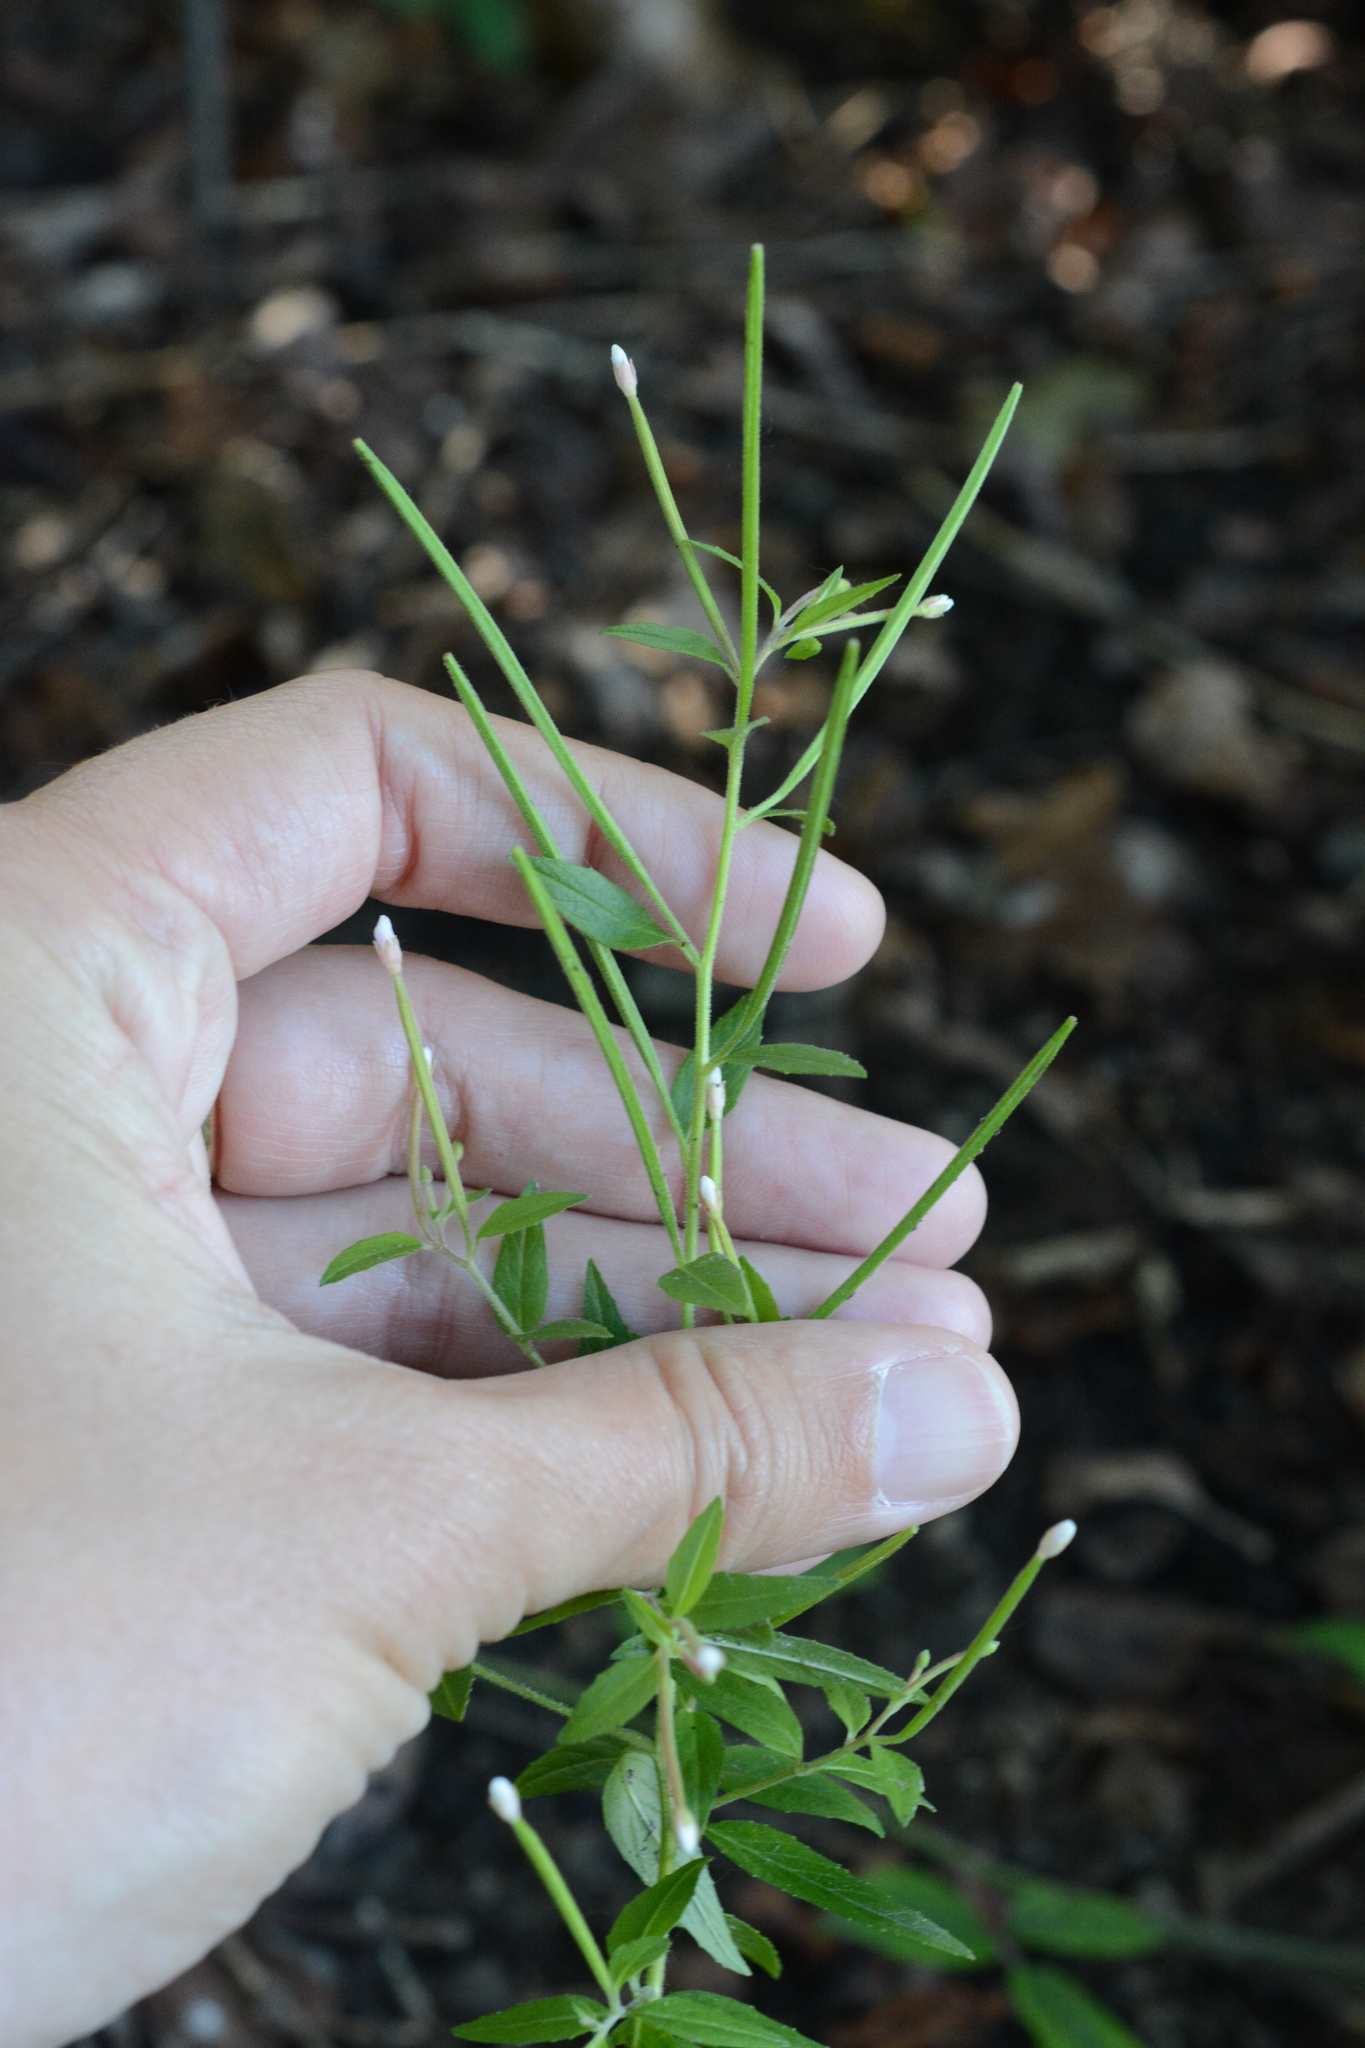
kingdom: Plantae
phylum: Tracheophyta
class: Magnoliopsida
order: Myrtales
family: Onagraceae
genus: Epilobium
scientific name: Epilobium ciliatum
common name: American willowherb
